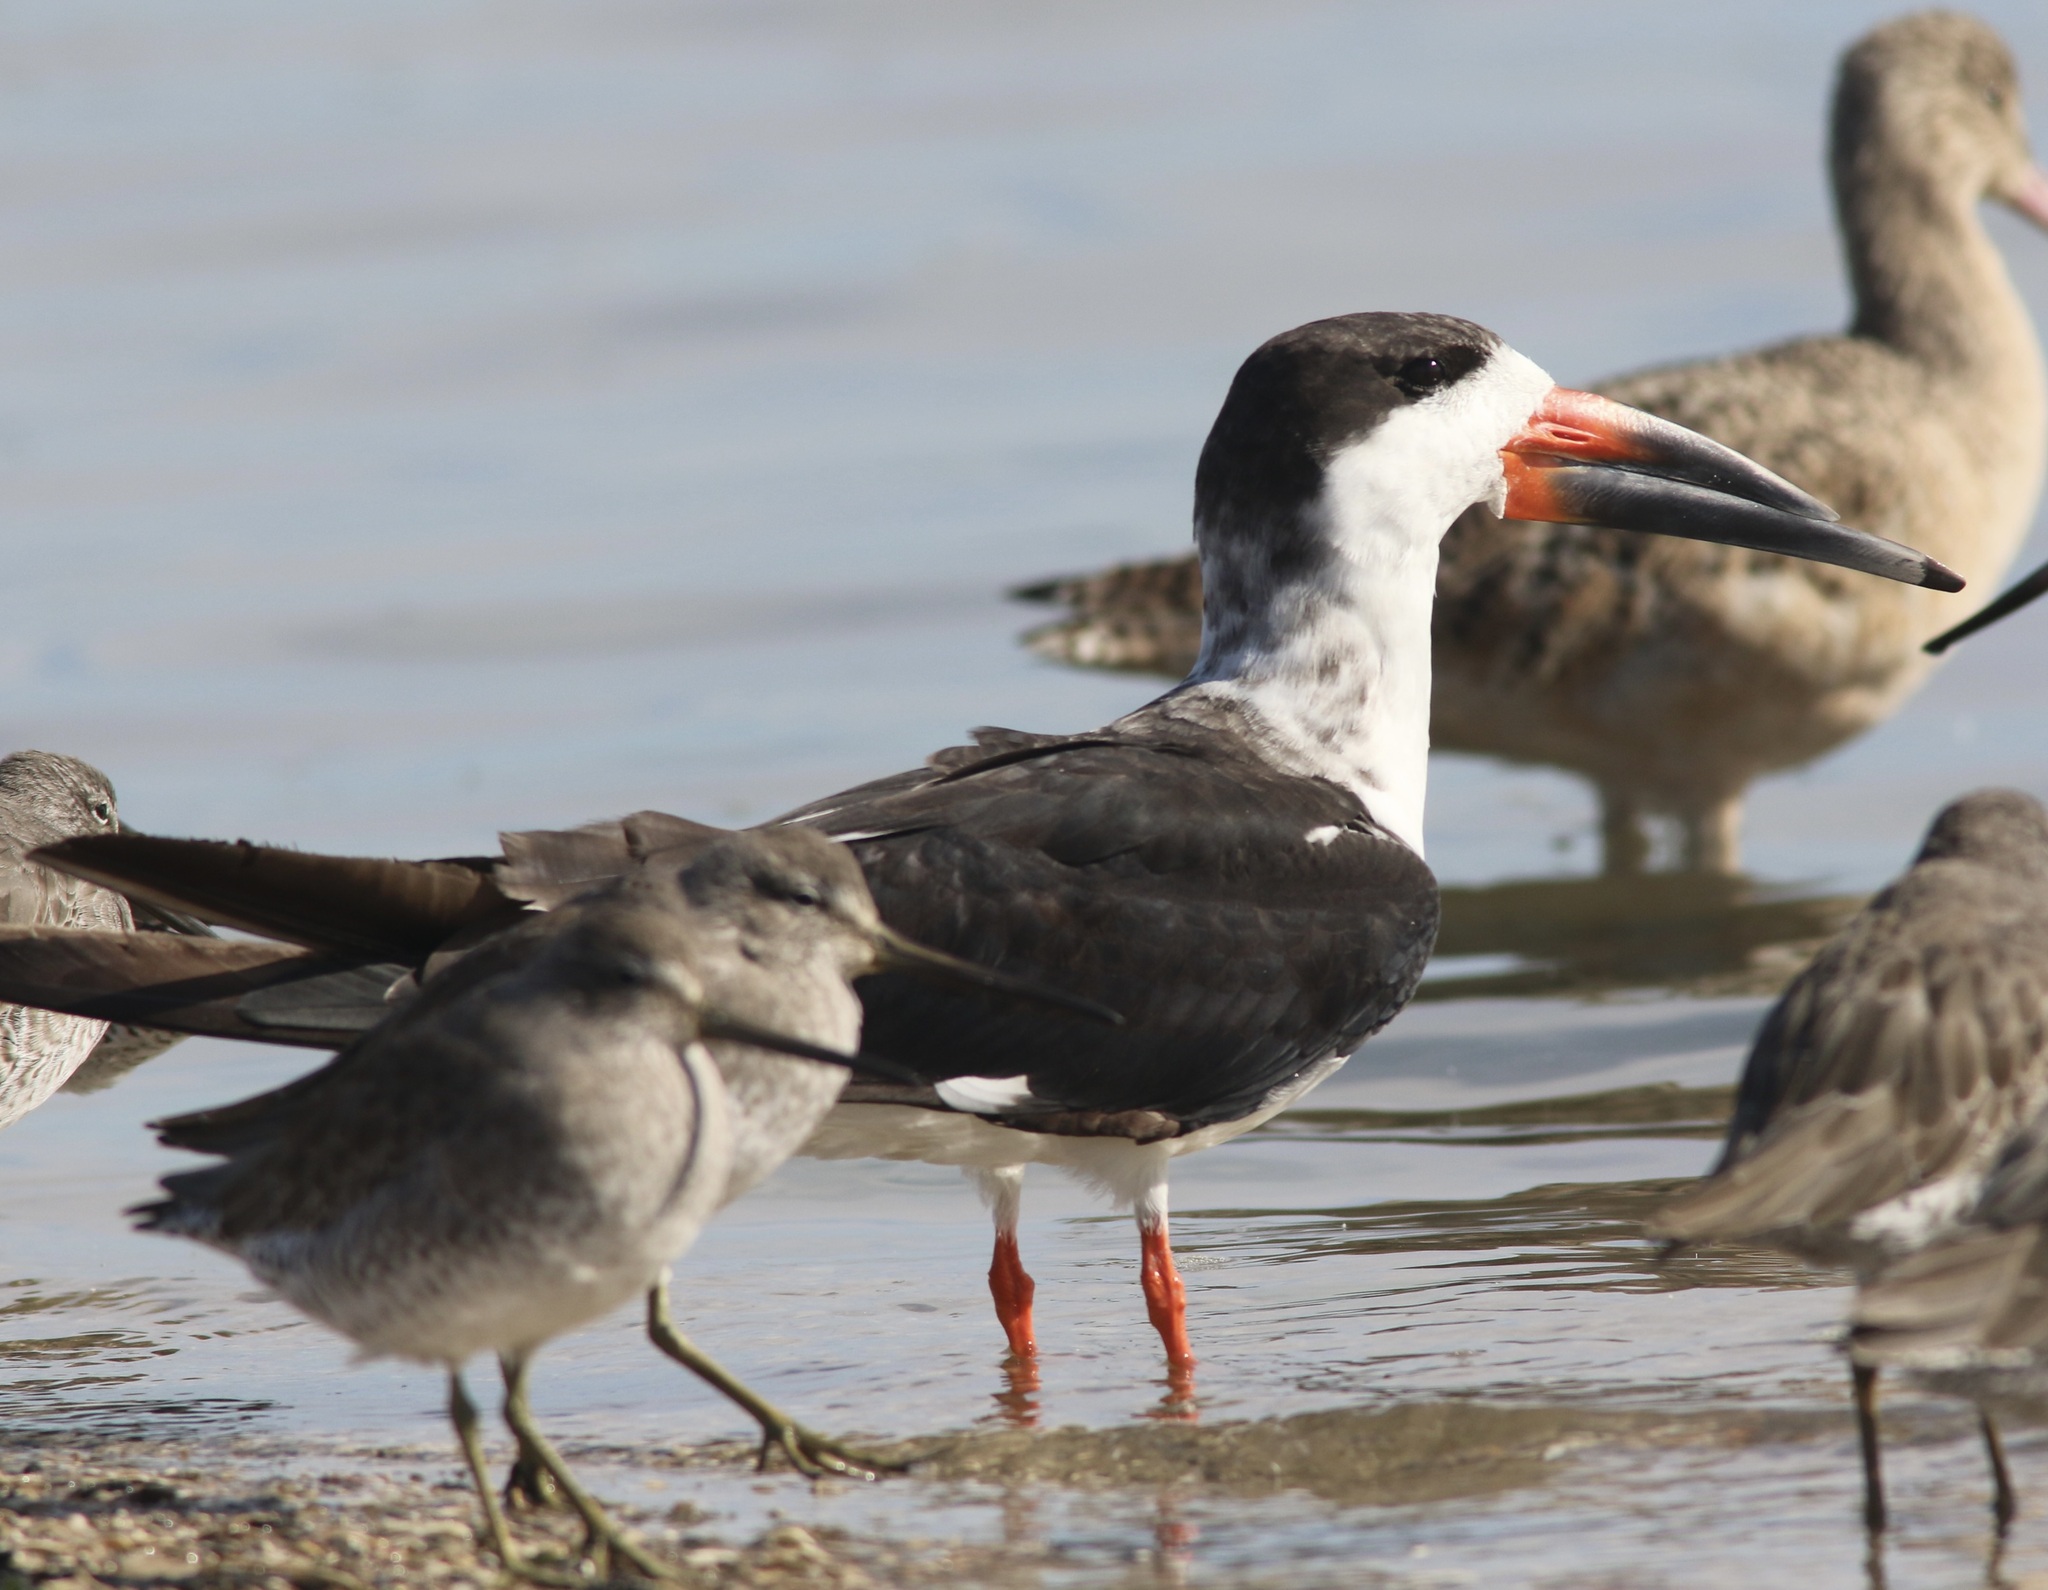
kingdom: Animalia
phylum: Chordata
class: Aves
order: Charadriiformes
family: Laridae
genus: Rynchops
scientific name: Rynchops niger
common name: Black skimmer
